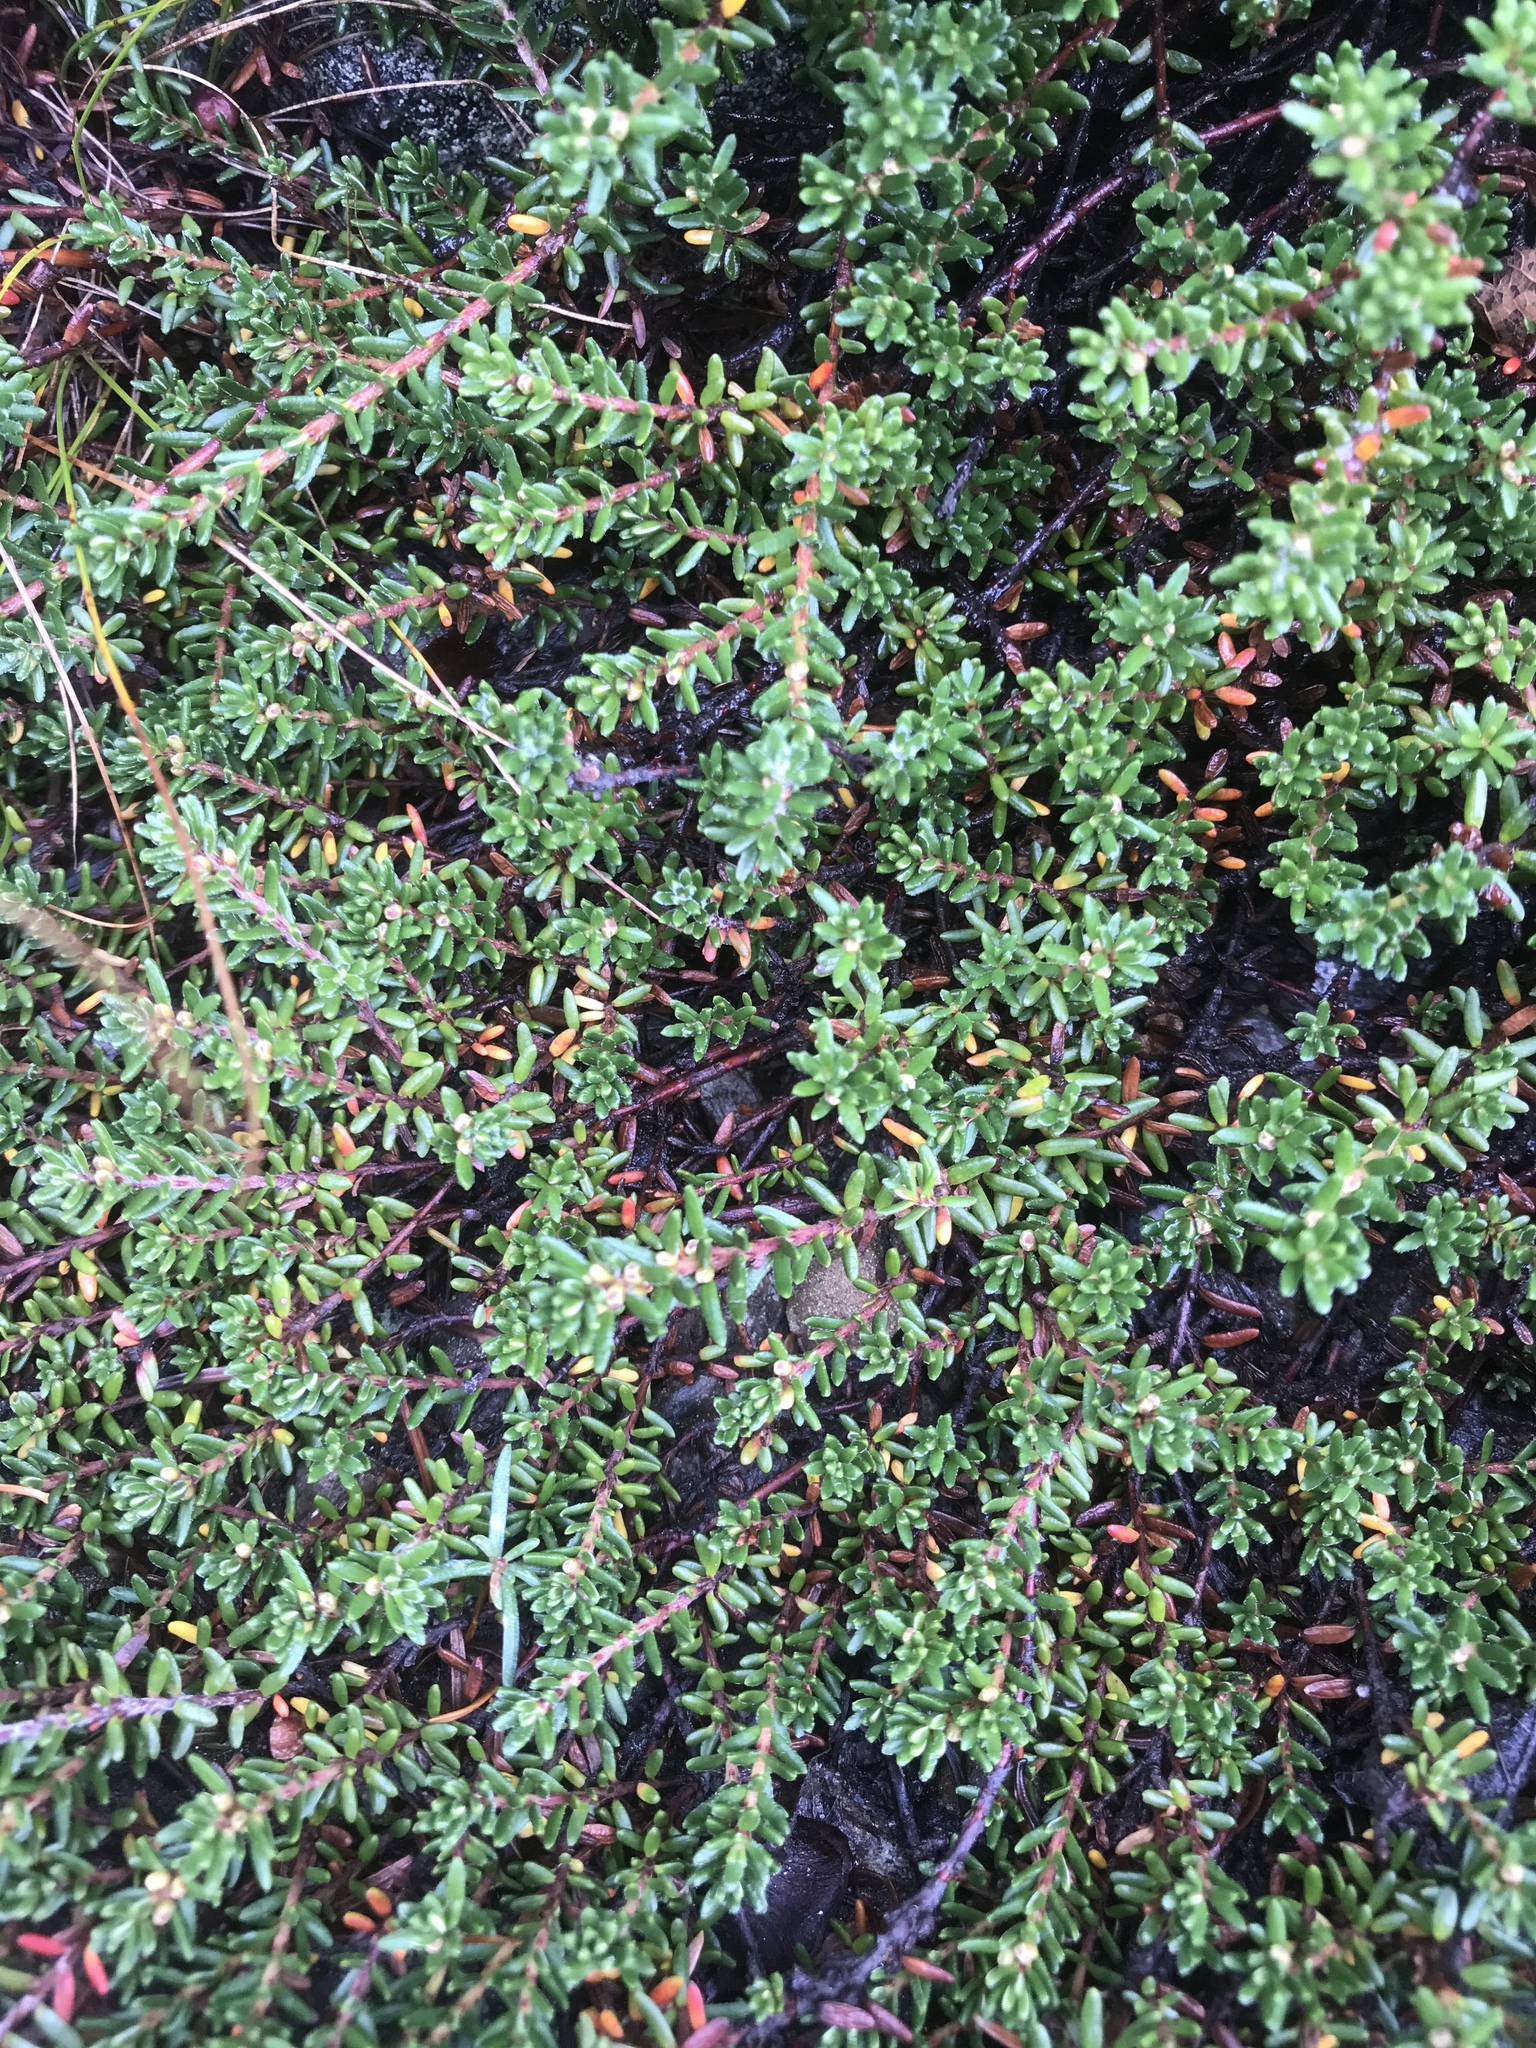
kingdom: Plantae
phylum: Tracheophyta
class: Magnoliopsida
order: Ericales
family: Ericaceae
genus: Empetrum
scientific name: Empetrum atropurpureum
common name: Purple crowberry
